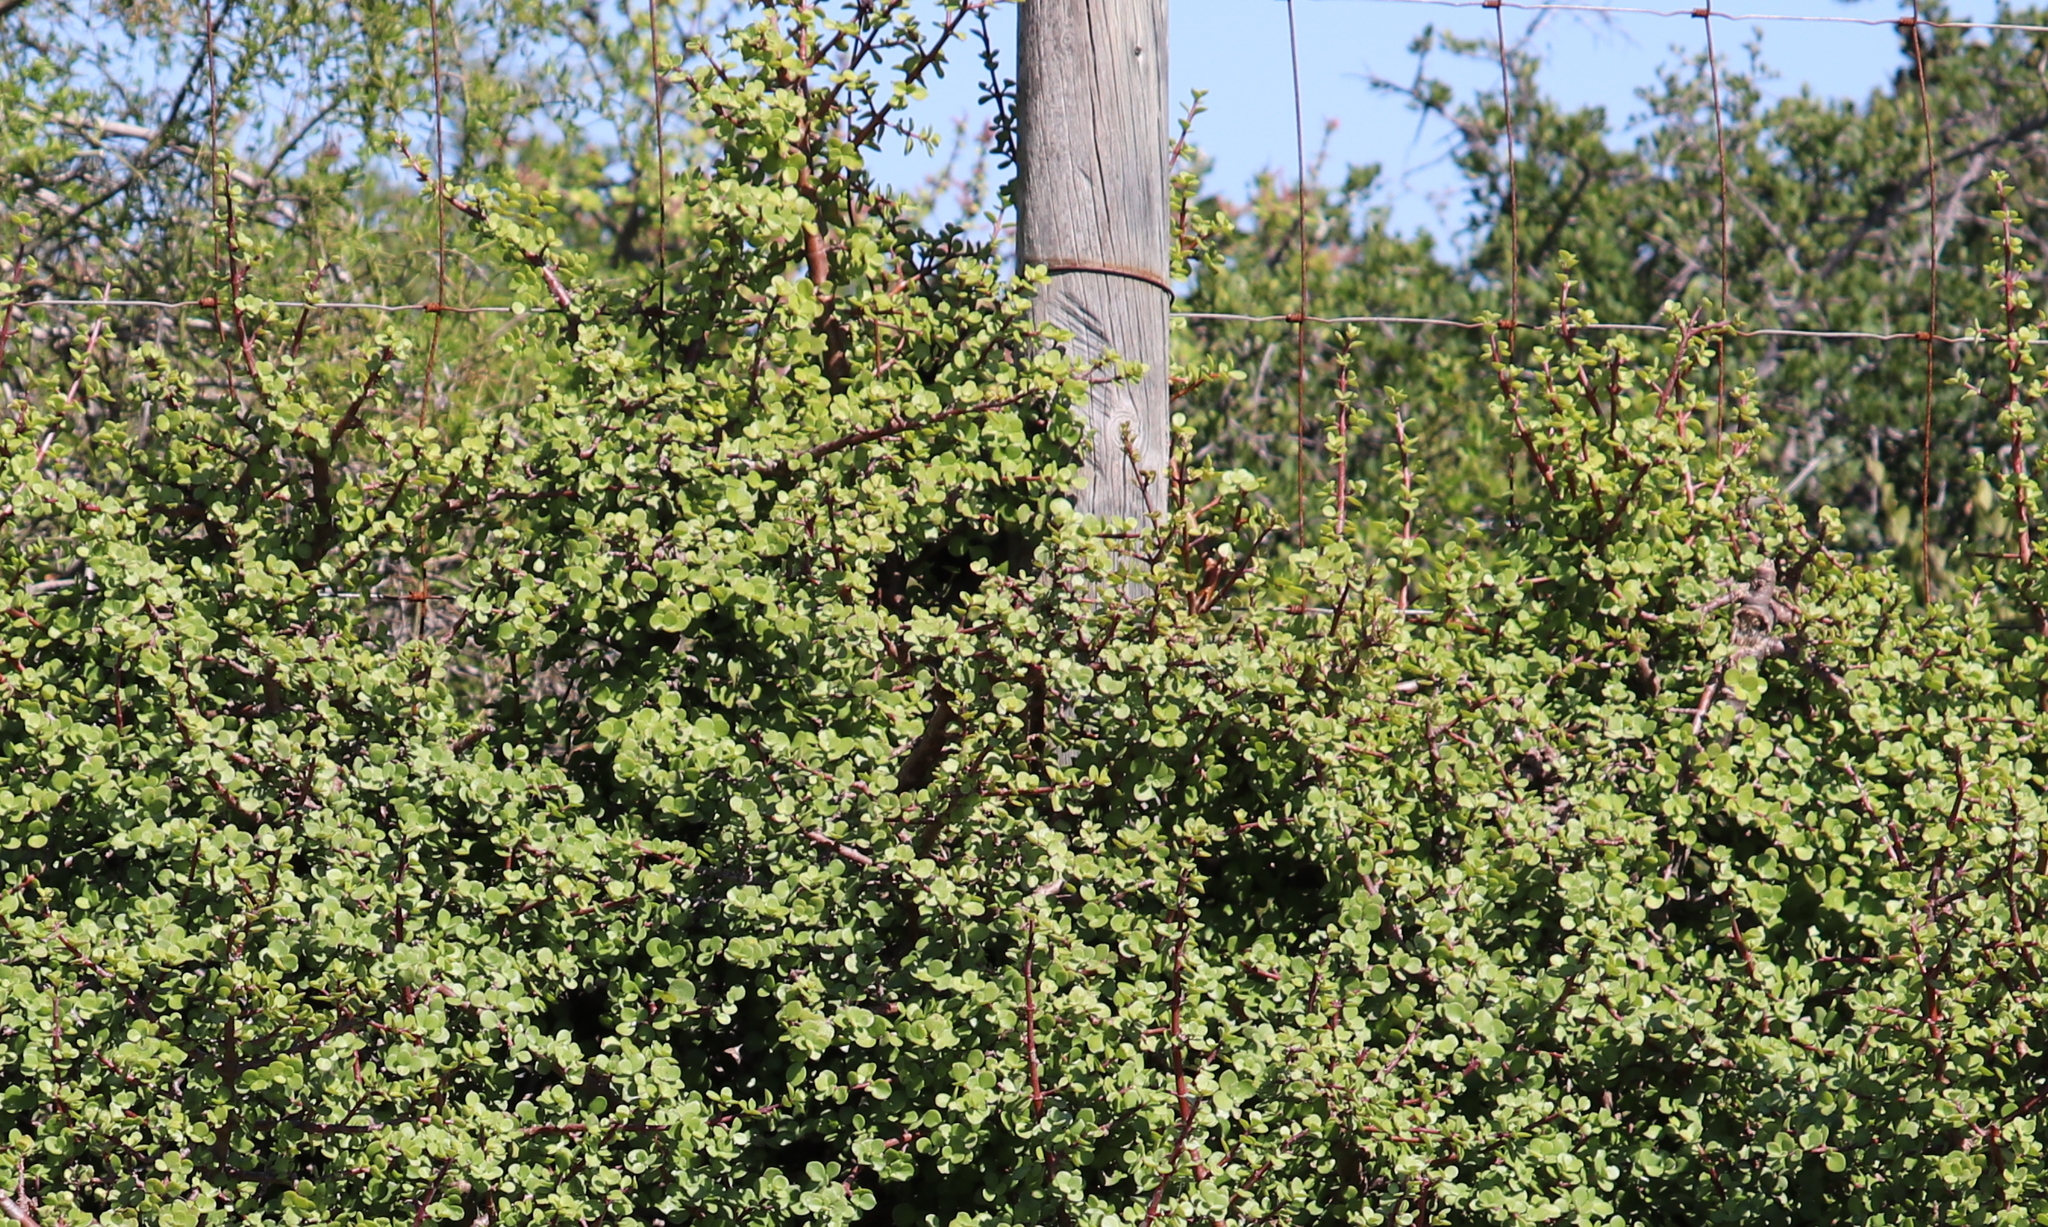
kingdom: Plantae
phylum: Tracheophyta
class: Magnoliopsida
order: Caryophyllales
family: Didiereaceae
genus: Portulacaria
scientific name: Portulacaria afra
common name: Elephant-bush
